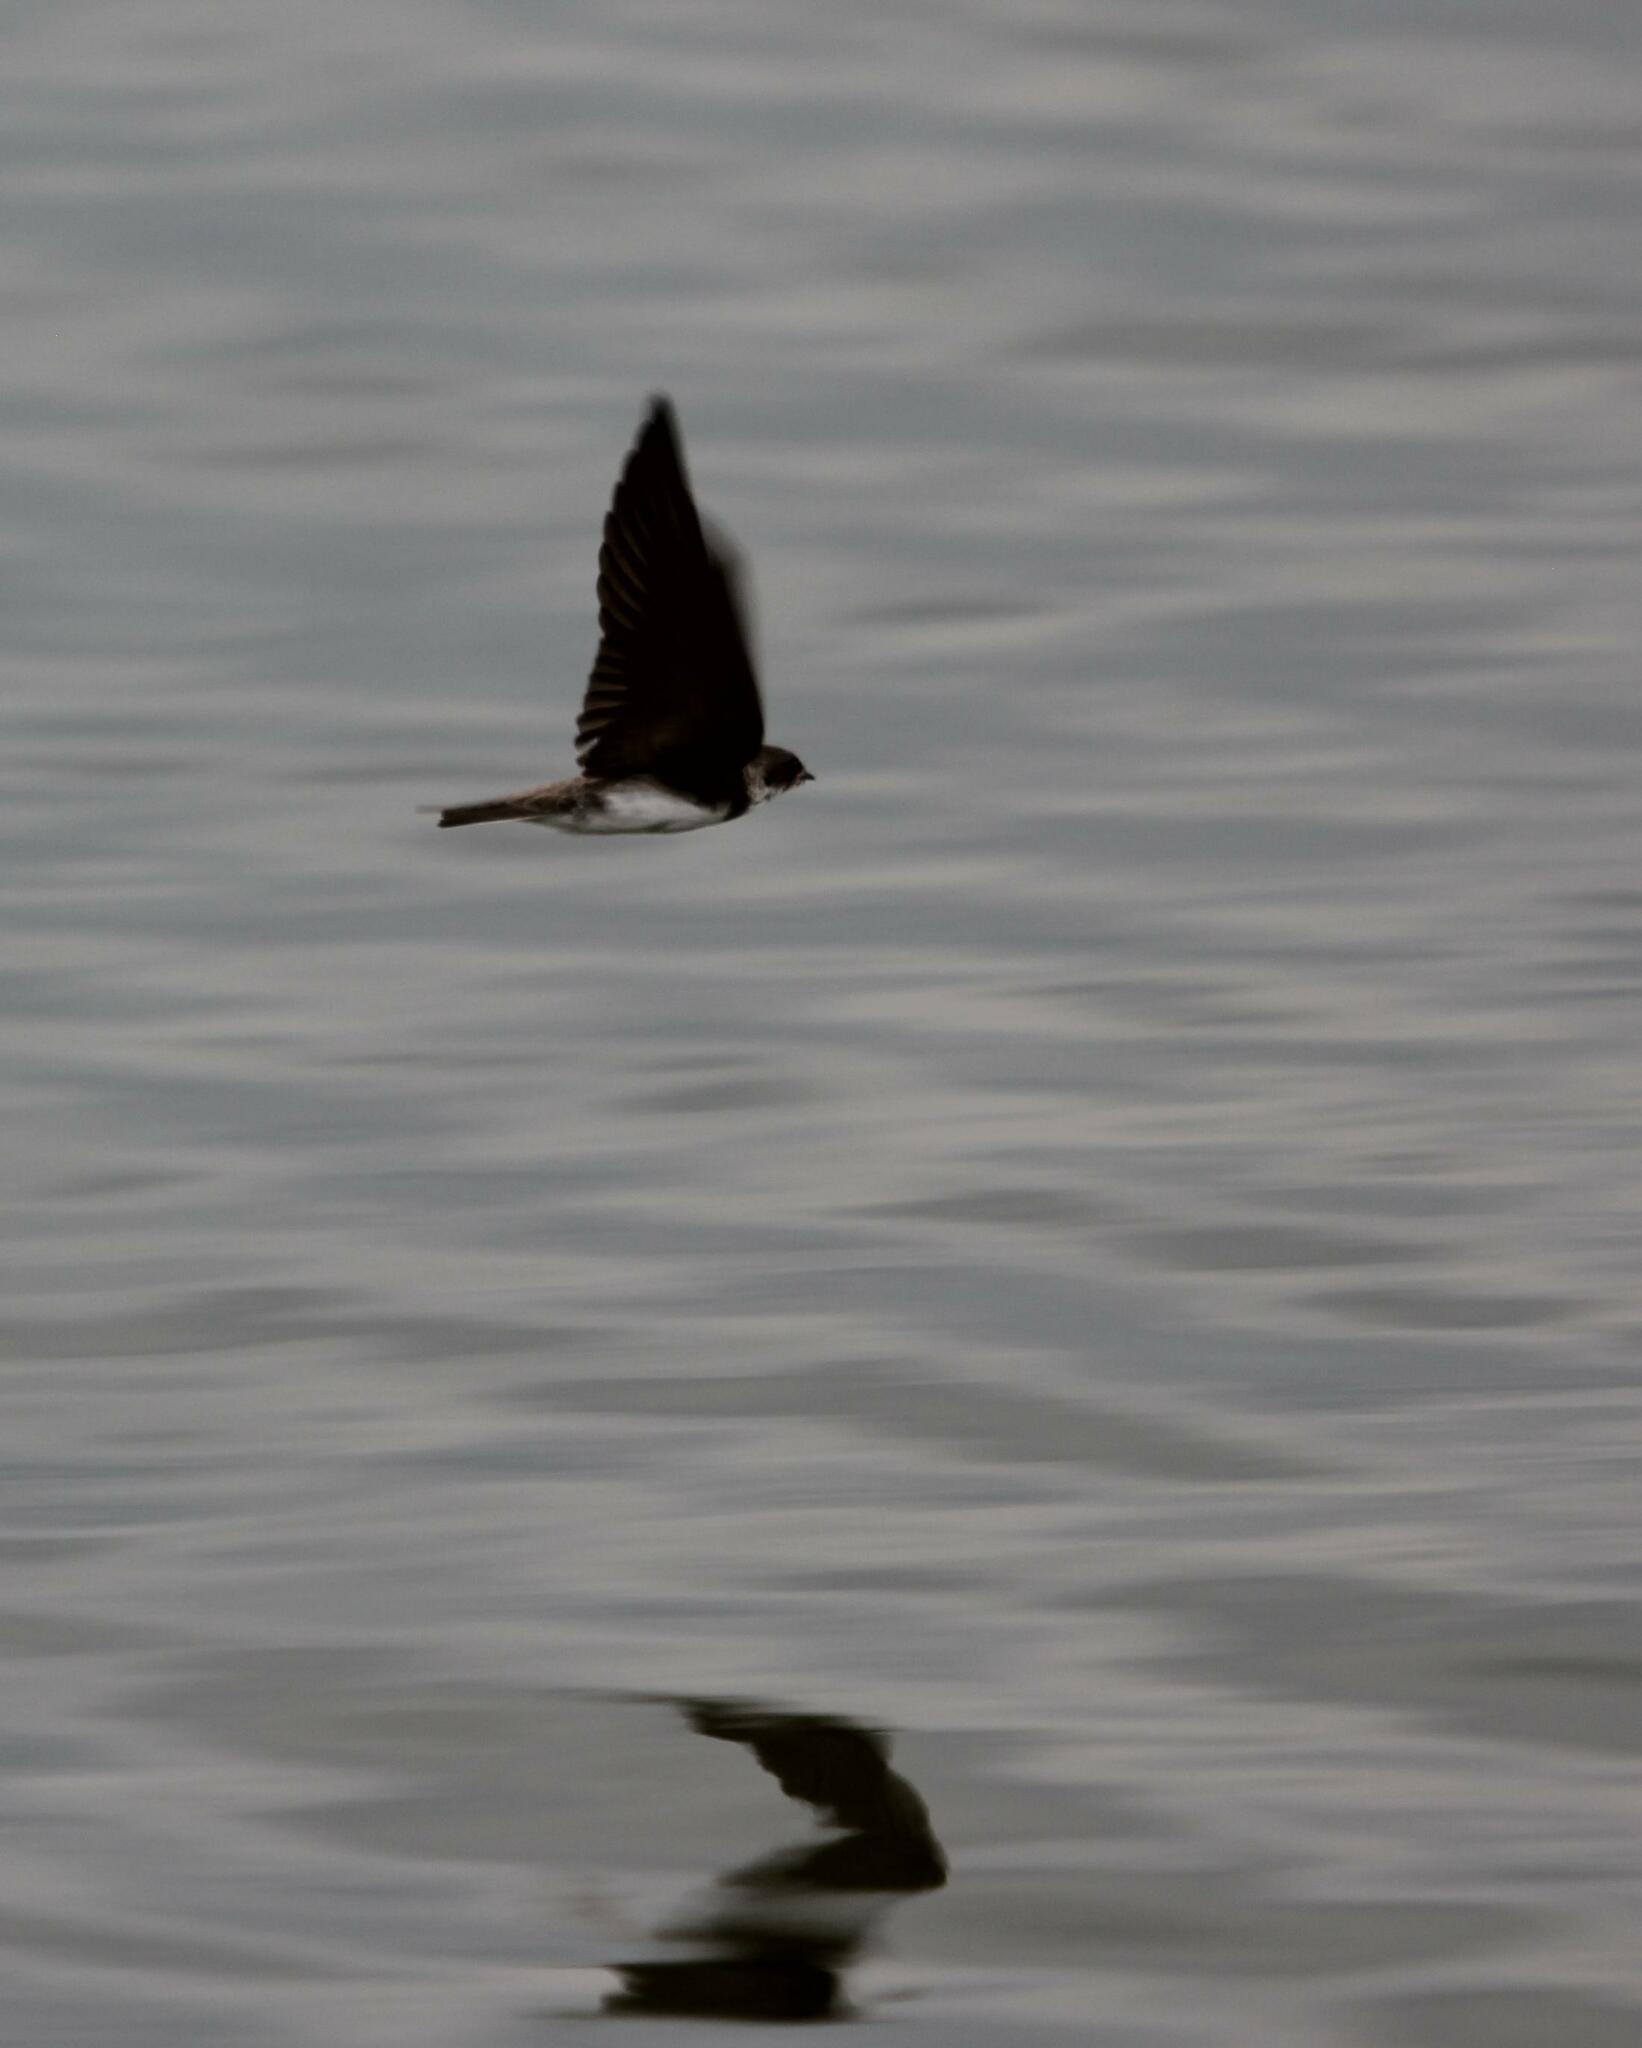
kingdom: Animalia
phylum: Chordata
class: Aves
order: Passeriformes
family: Hirundinidae
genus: Riparia
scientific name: Riparia riparia
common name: Sand martin
